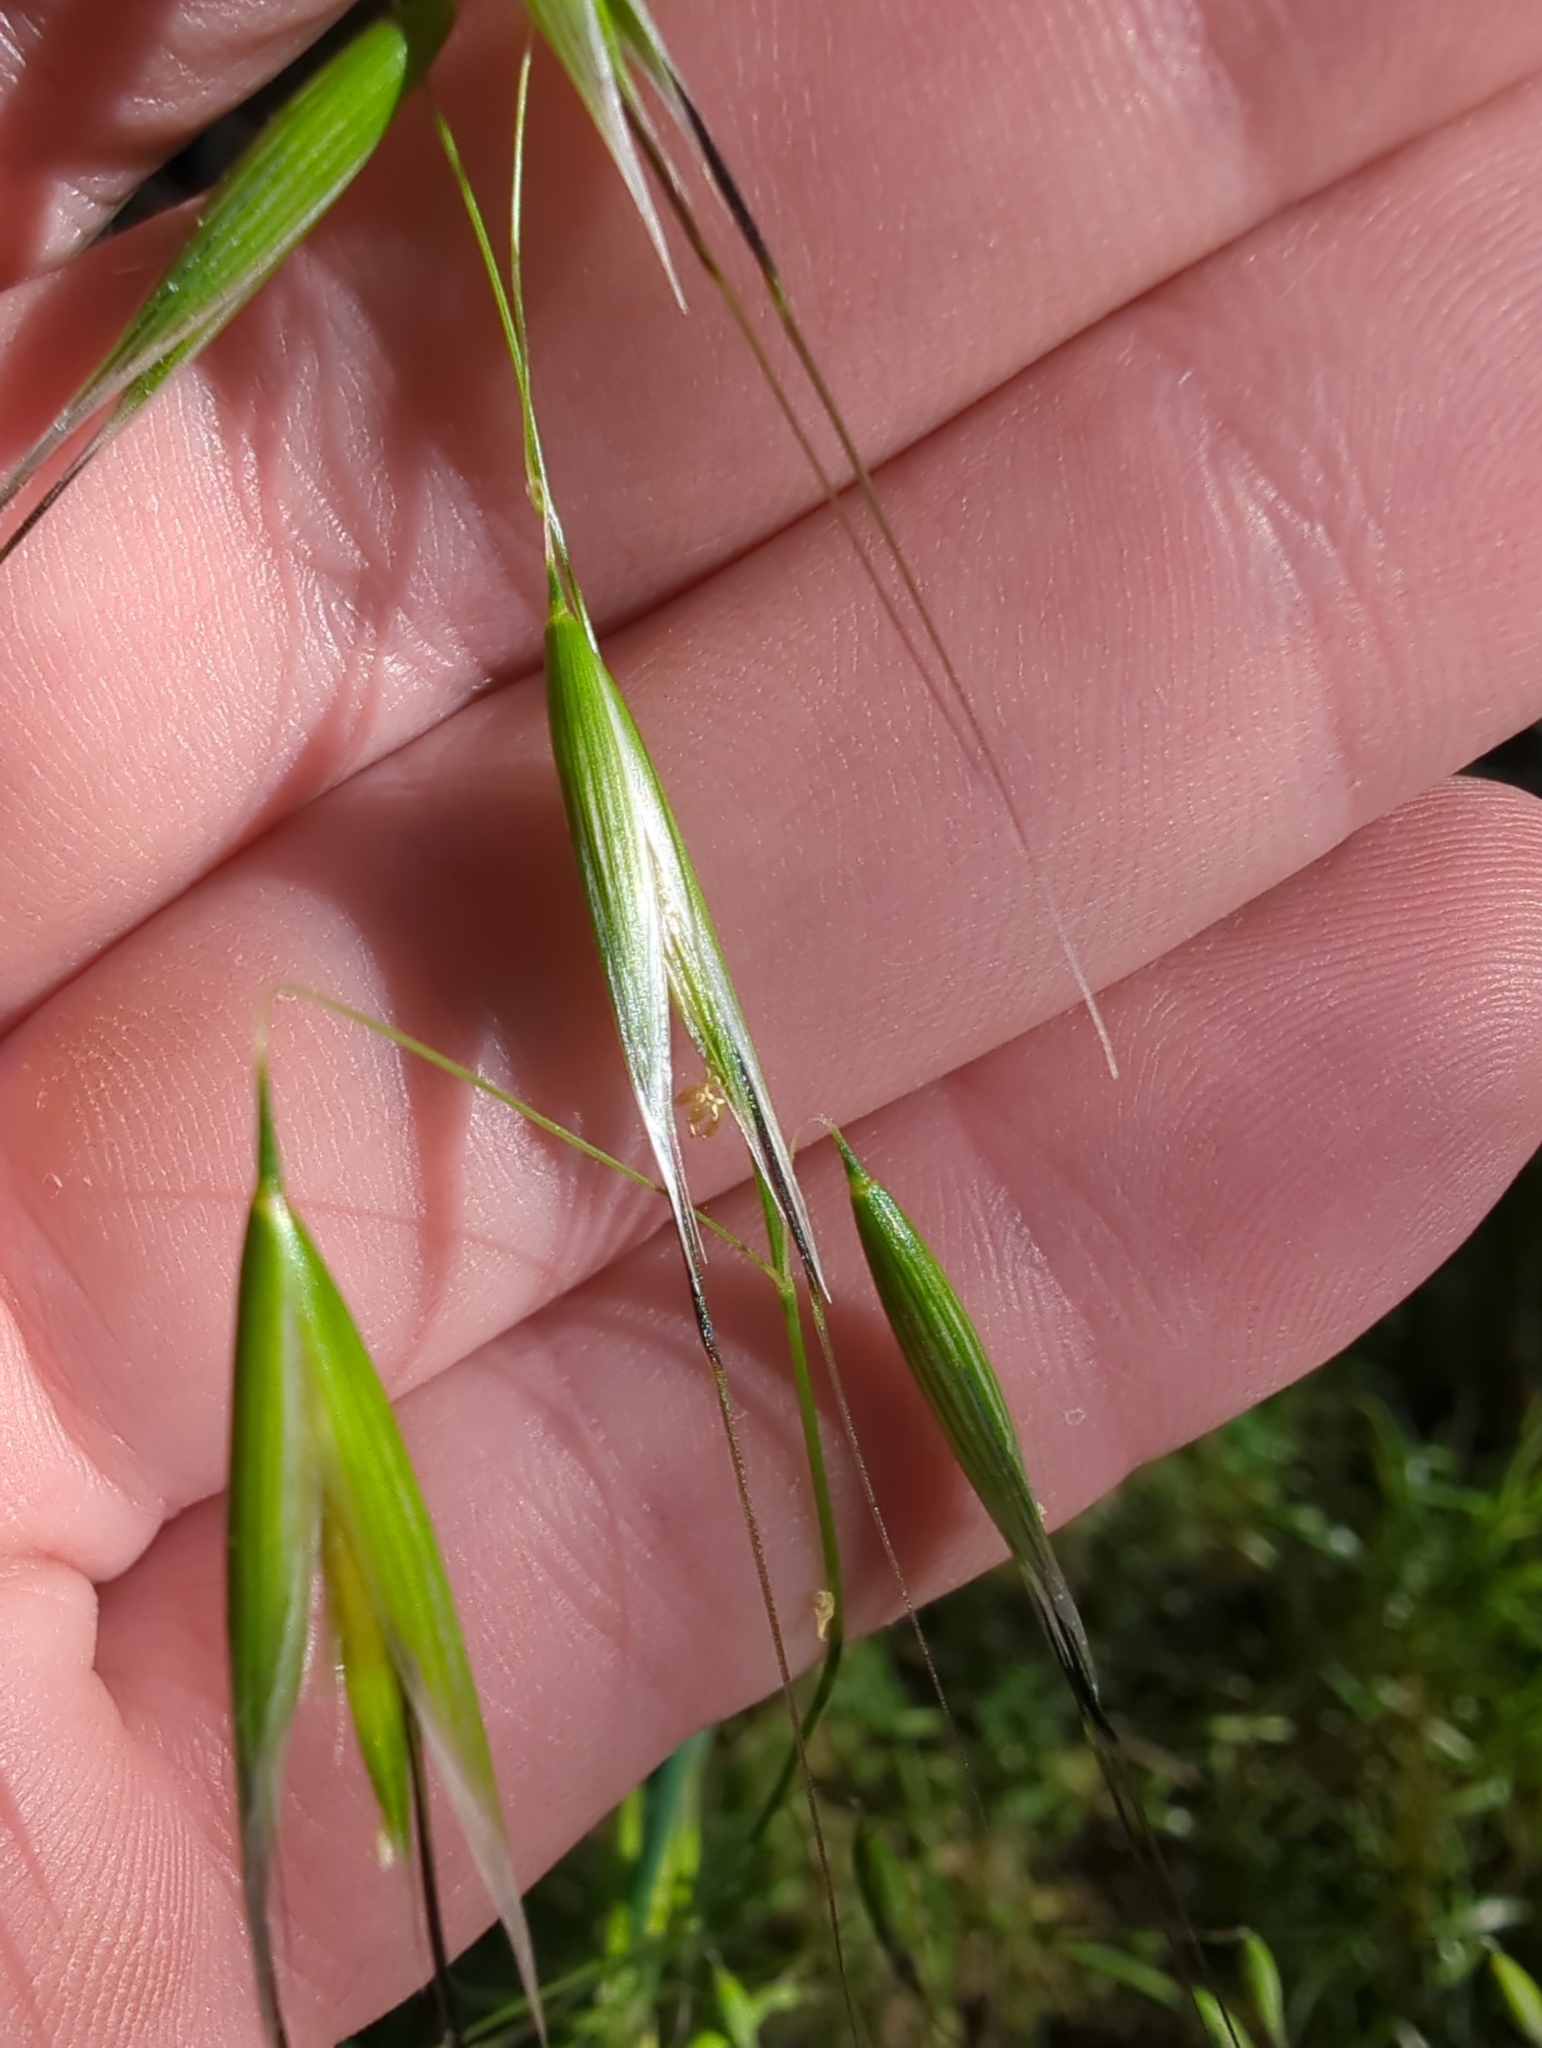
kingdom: Plantae
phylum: Tracheophyta
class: Liliopsida
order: Poales
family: Poaceae
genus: Avena
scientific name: Avena barbata
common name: Slender oat
